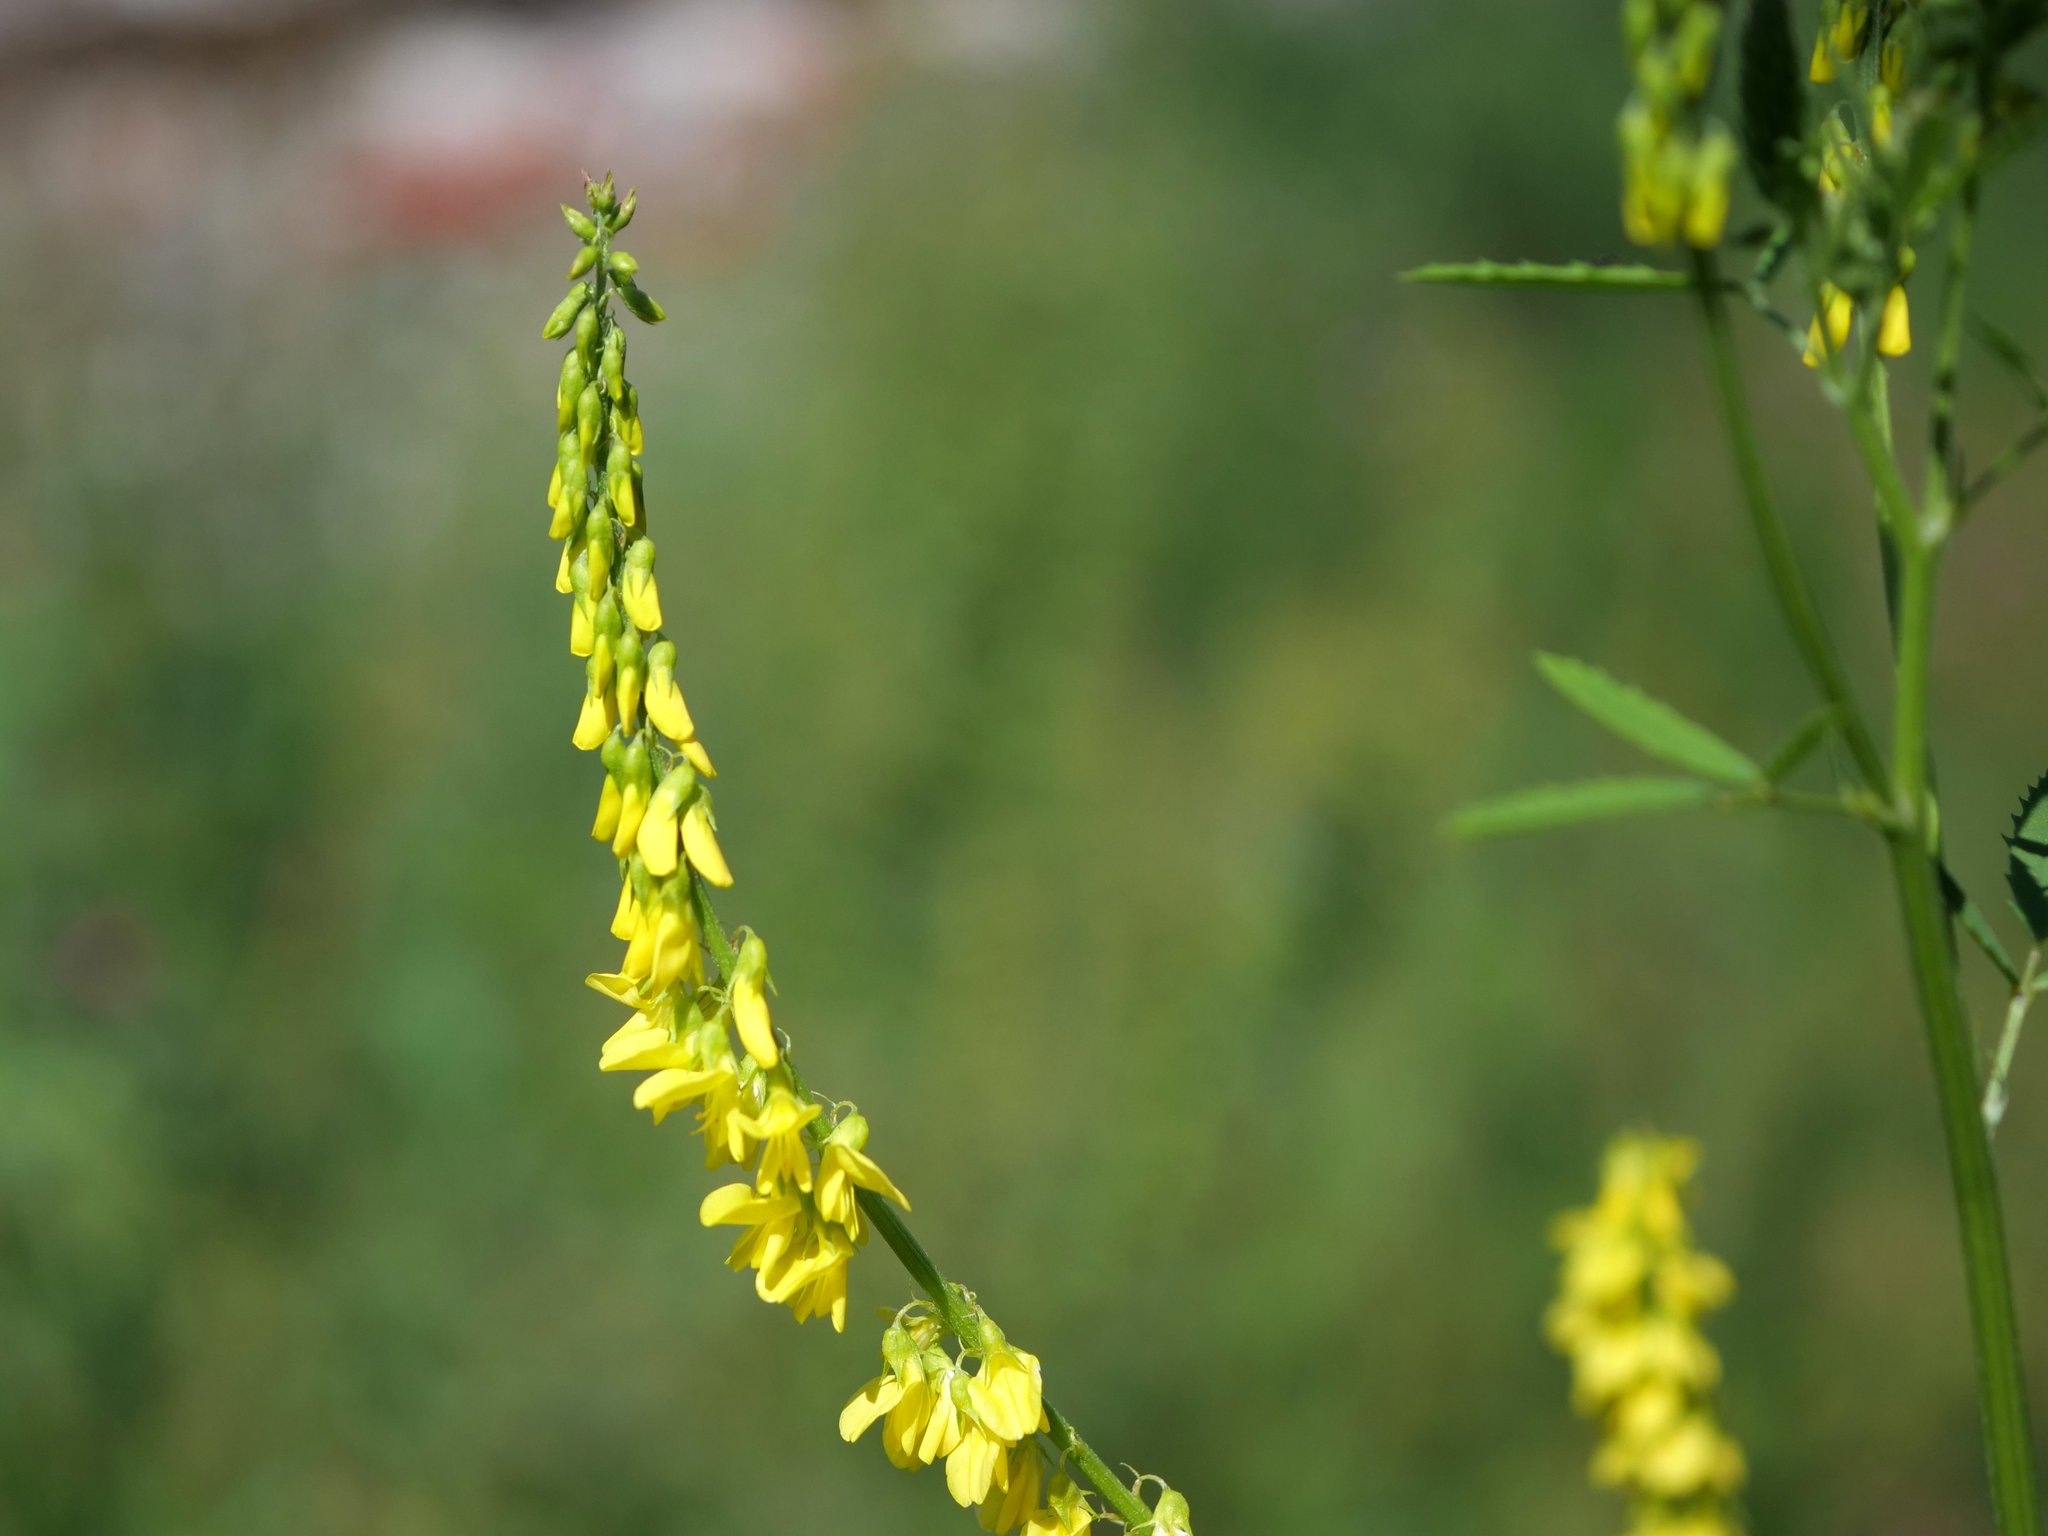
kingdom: Plantae
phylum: Tracheophyta
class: Magnoliopsida
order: Fabales
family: Fabaceae
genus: Melilotus
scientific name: Melilotus officinalis
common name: Sweetclover
